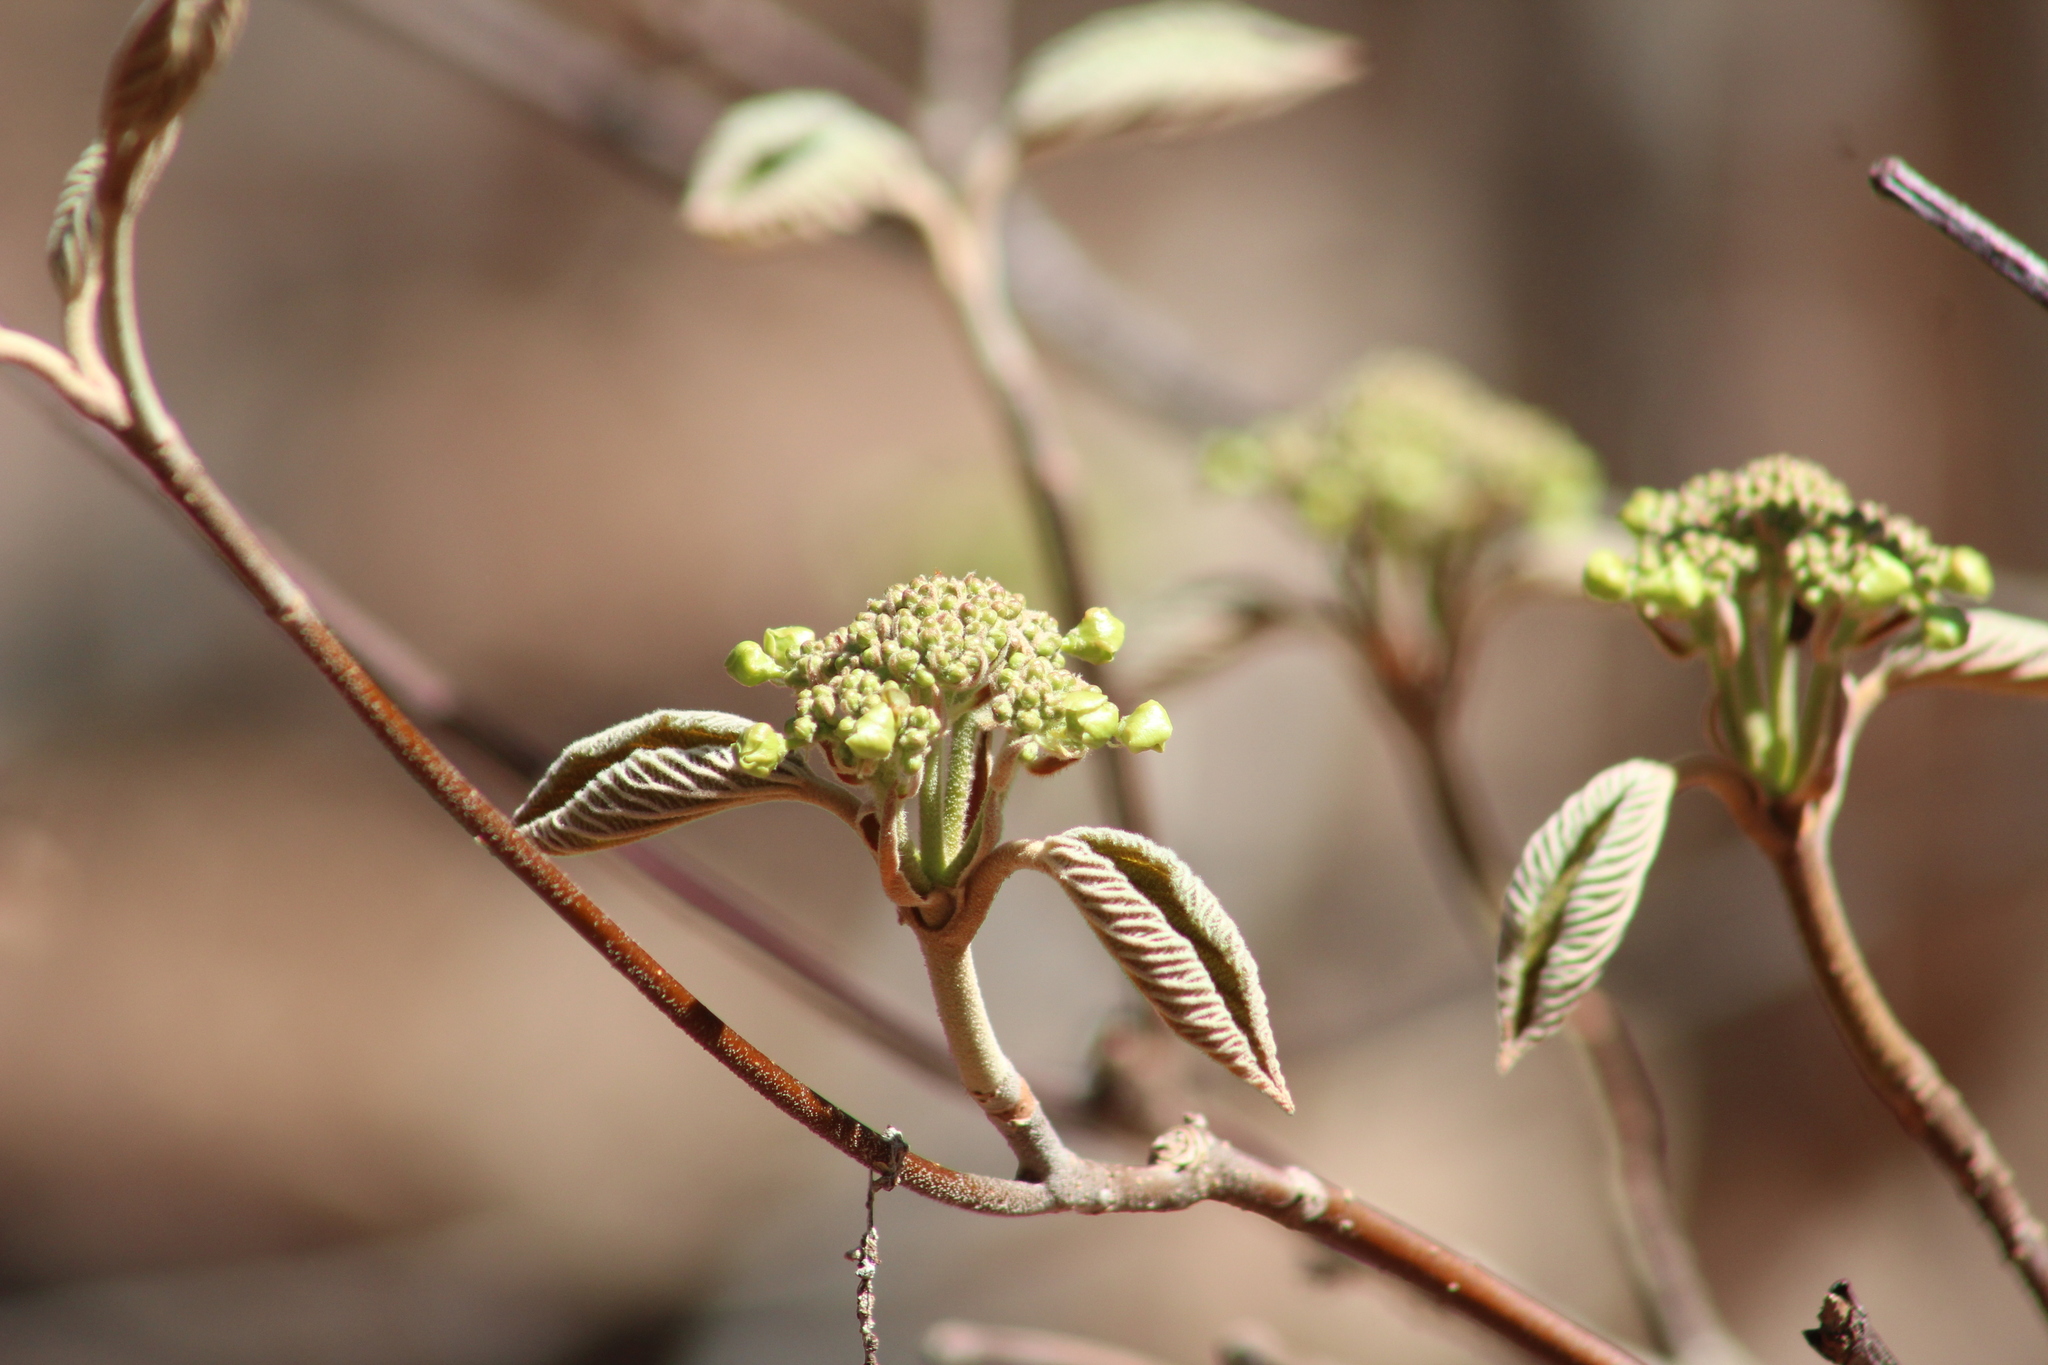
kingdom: Plantae
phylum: Tracheophyta
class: Magnoliopsida
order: Dipsacales
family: Viburnaceae
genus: Viburnum
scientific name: Viburnum lantanoides
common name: Hobblebush
